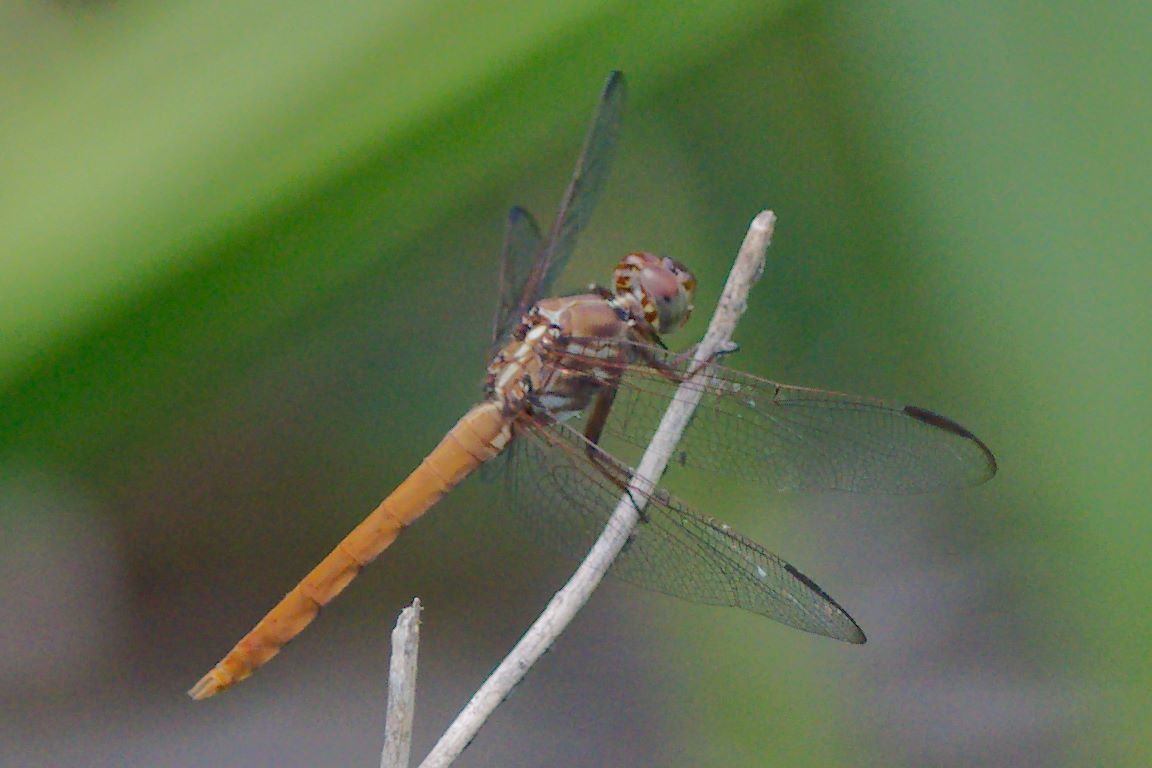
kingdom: Animalia
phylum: Arthropoda
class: Insecta
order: Odonata
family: Libellulidae
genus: Orthemis
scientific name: Orthemis ferruginea
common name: Roseate skimmer
